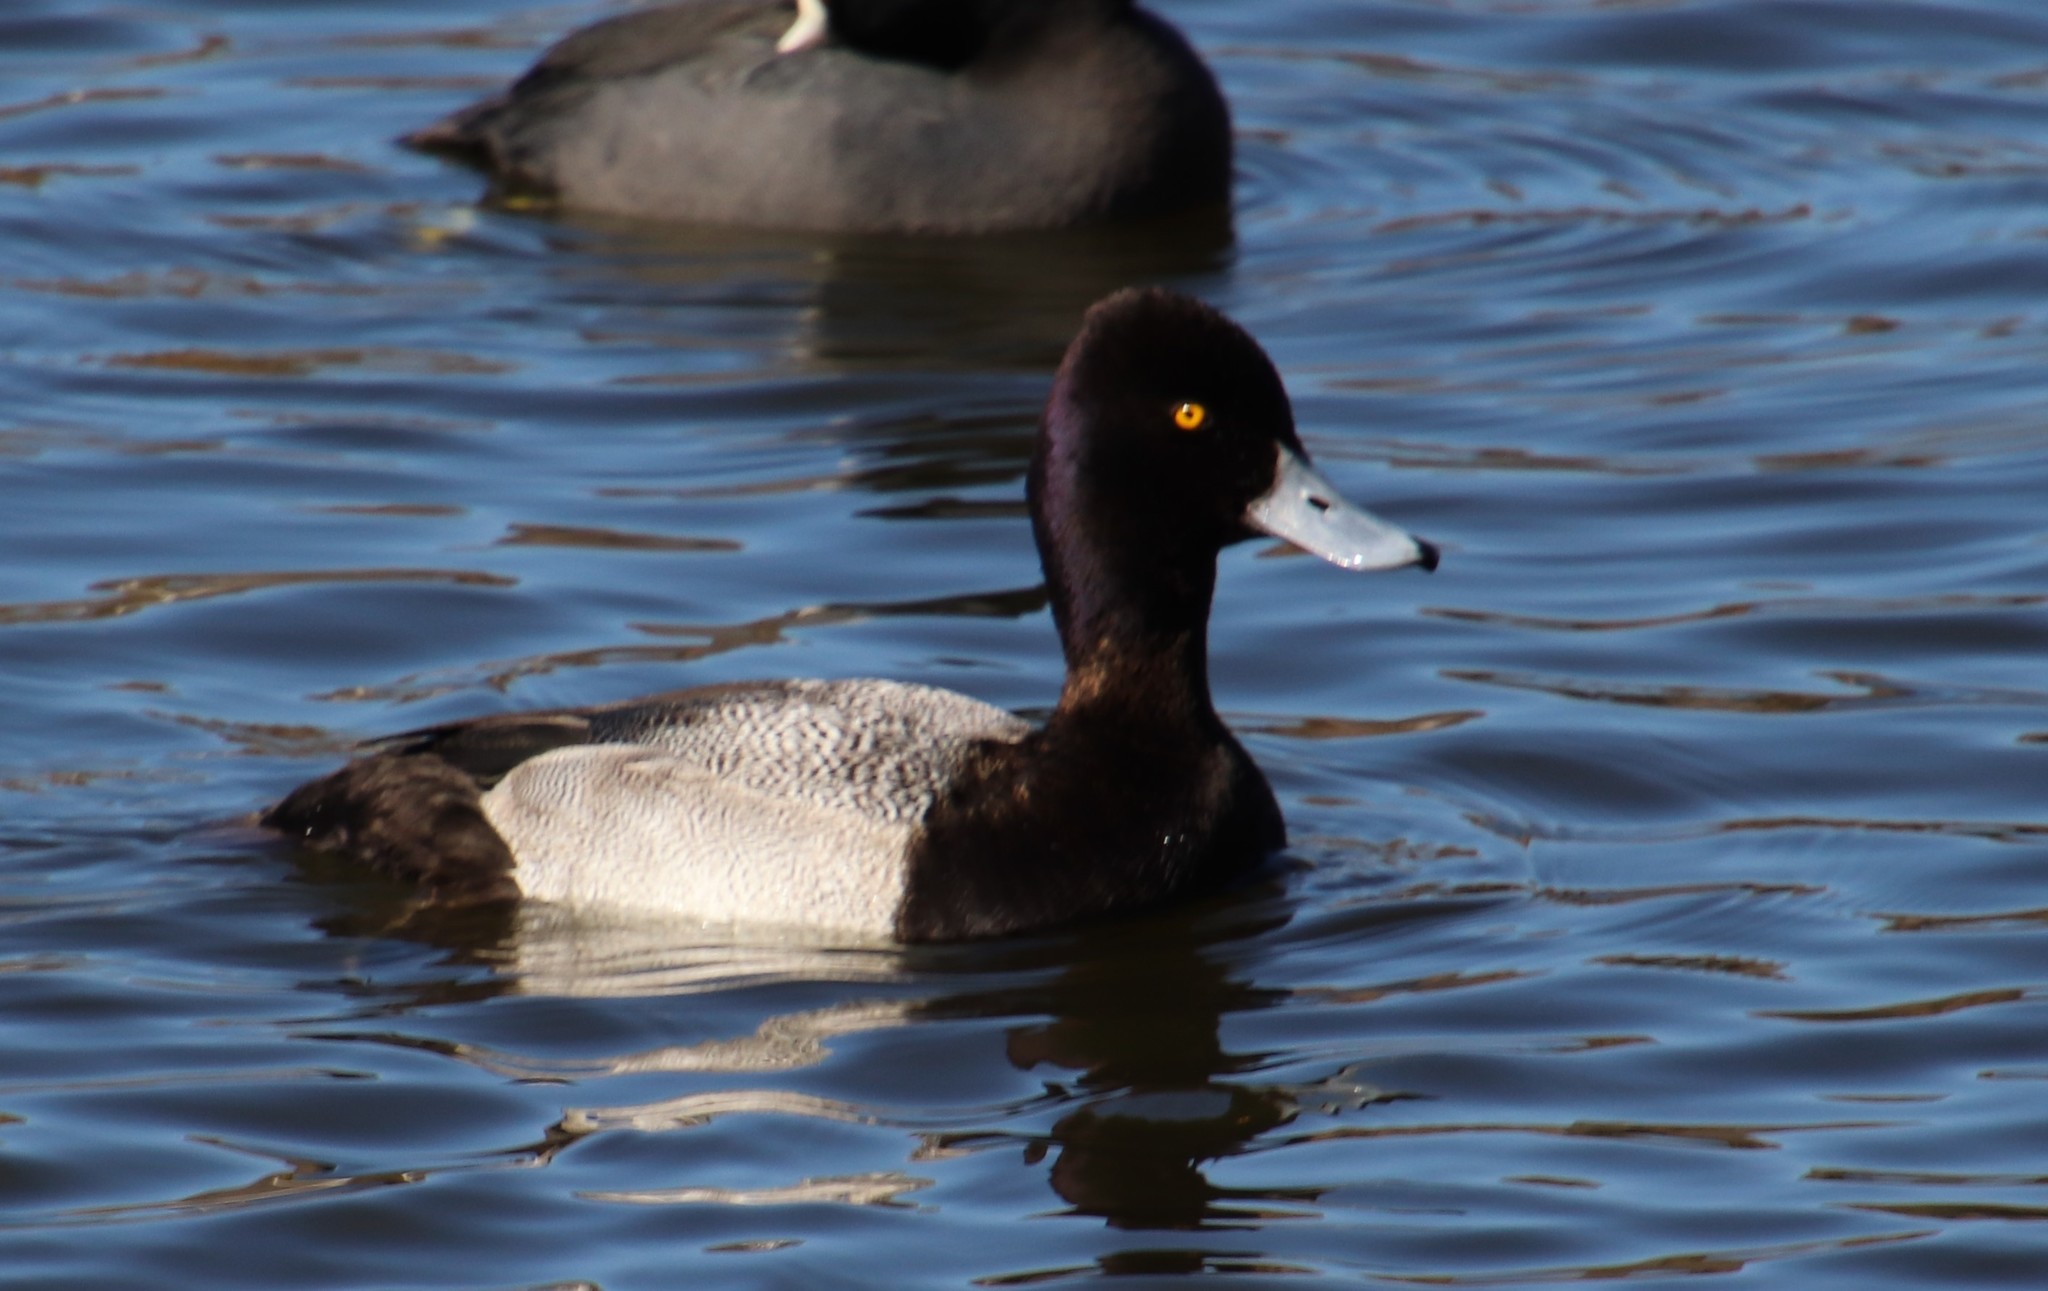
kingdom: Animalia
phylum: Chordata
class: Aves
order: Anseriformes
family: Anatidae
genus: Aythya
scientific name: Aythya affinis
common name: Lesser scaup
